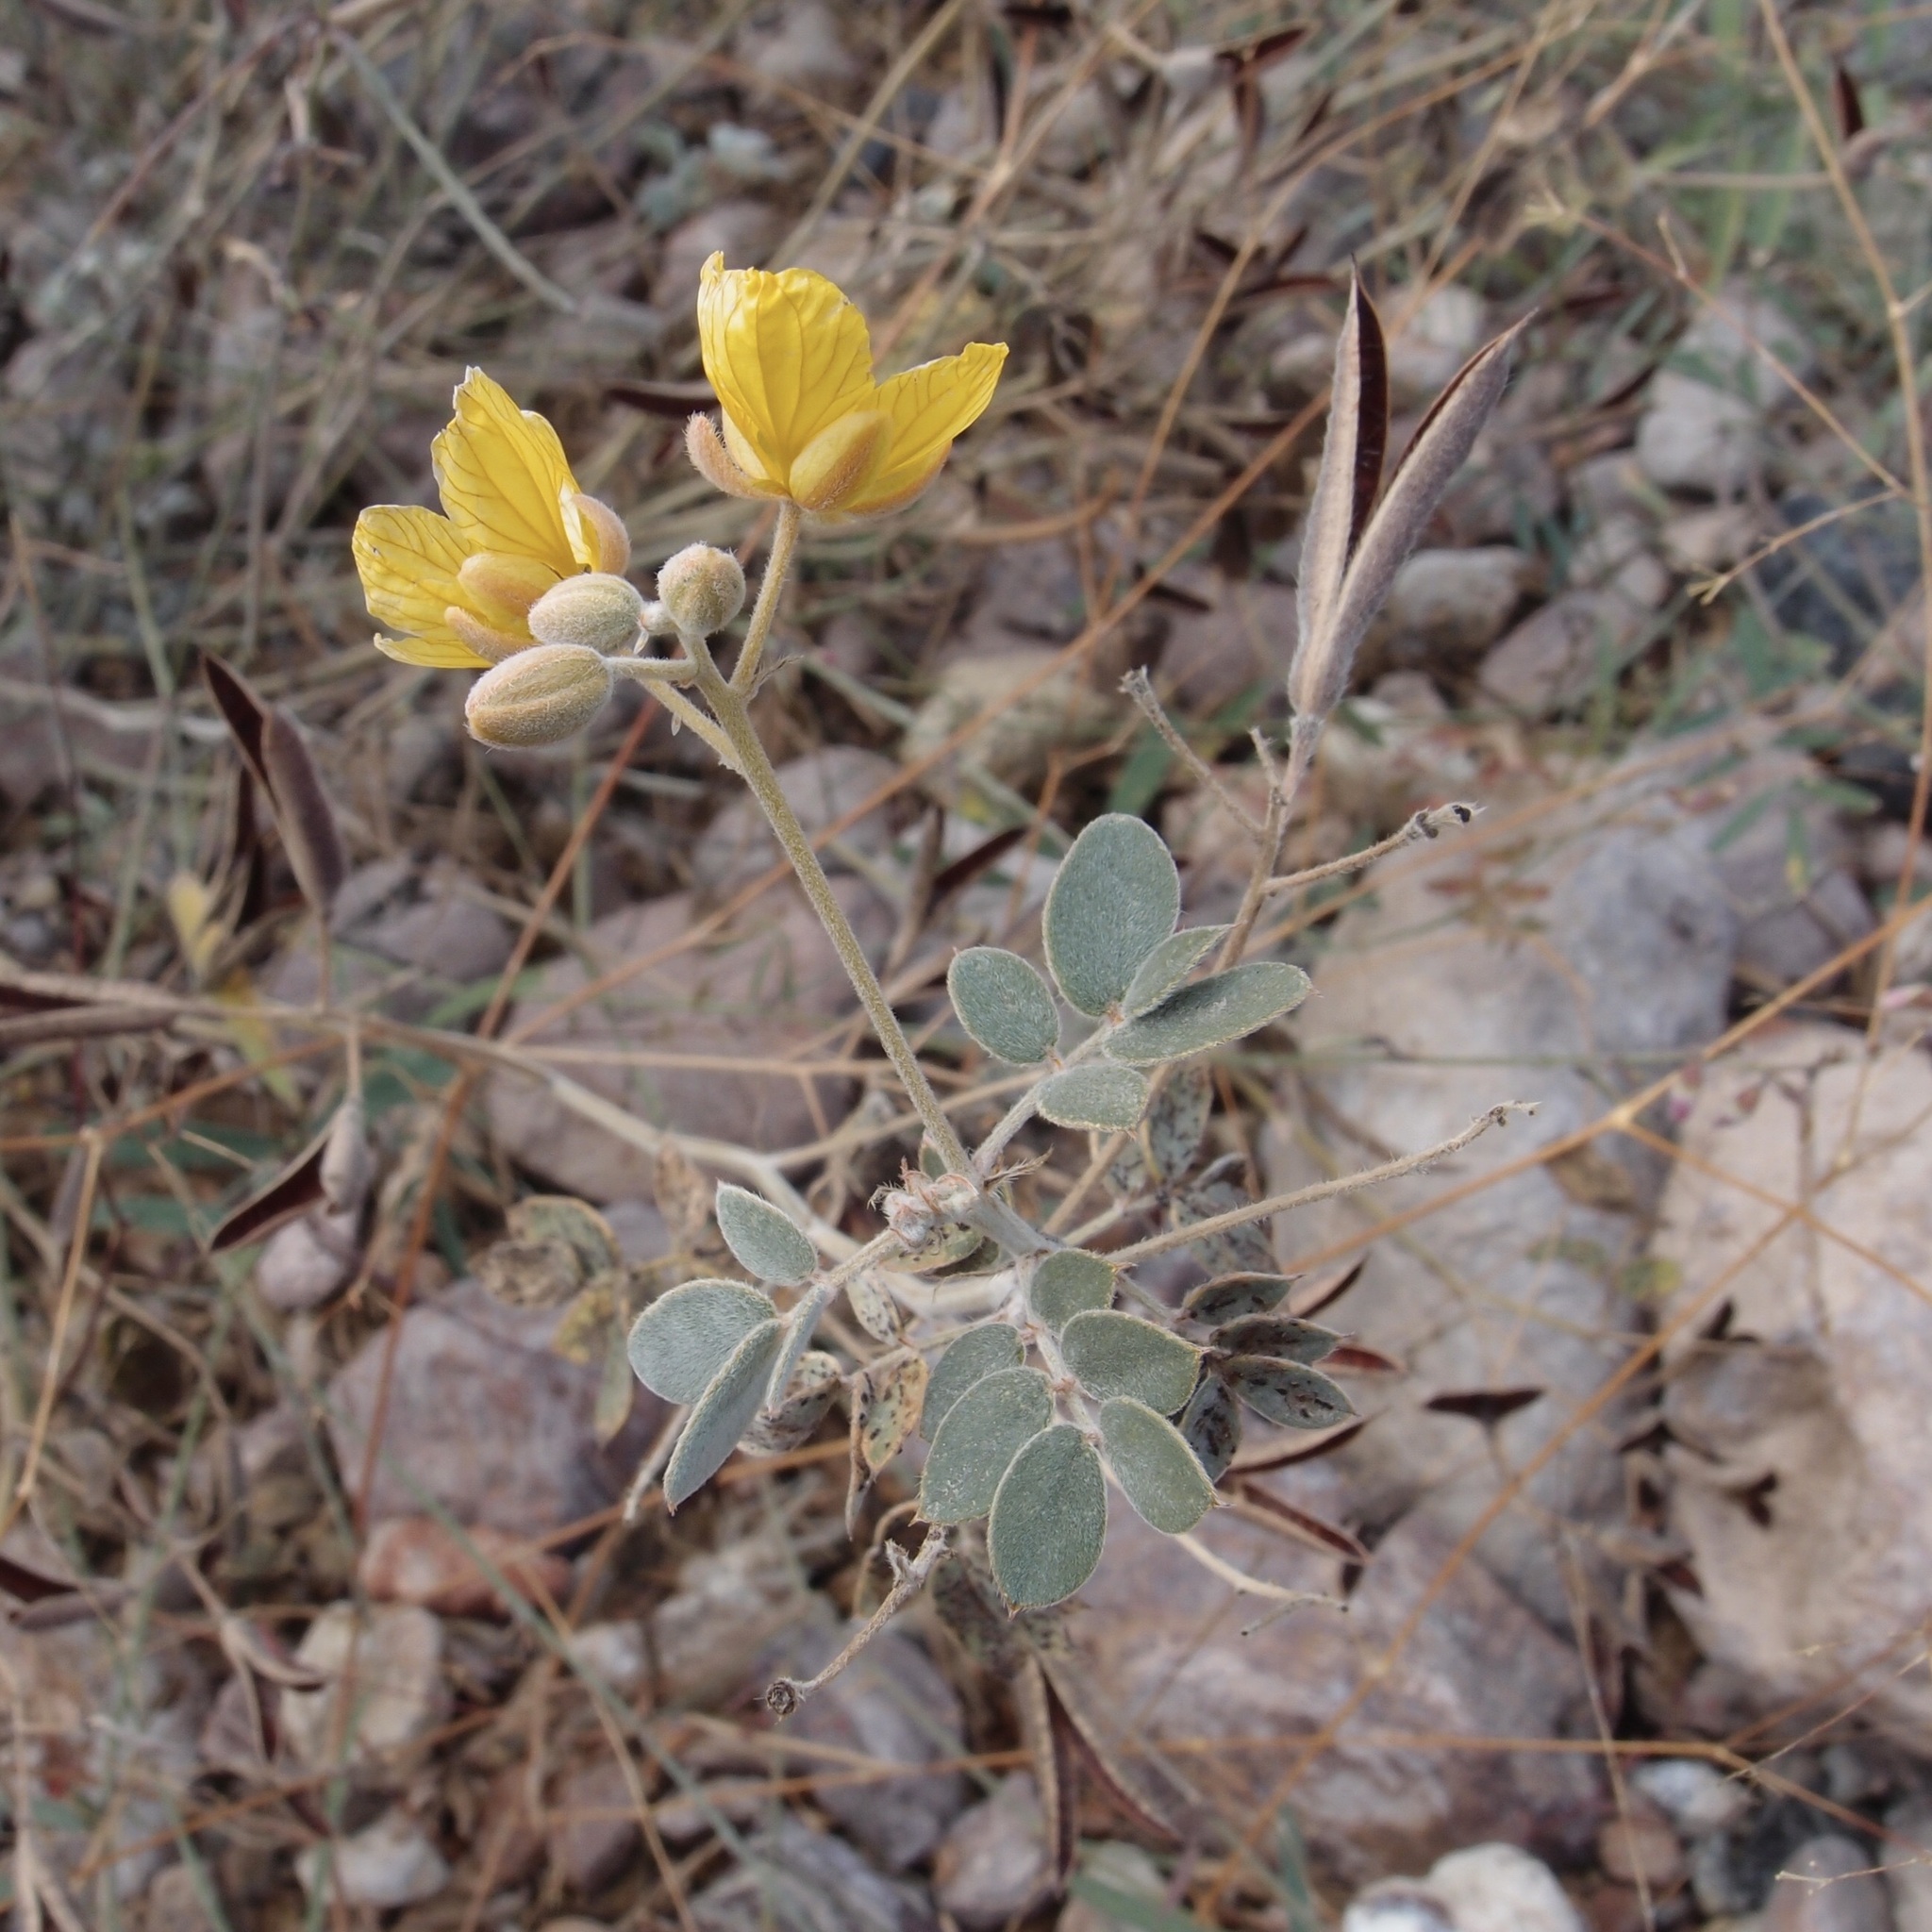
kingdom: Plantae
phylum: Tracheophyta
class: Magnoliopsida
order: Fabales
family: Fabaceae
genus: Senna
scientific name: Senna covesii
